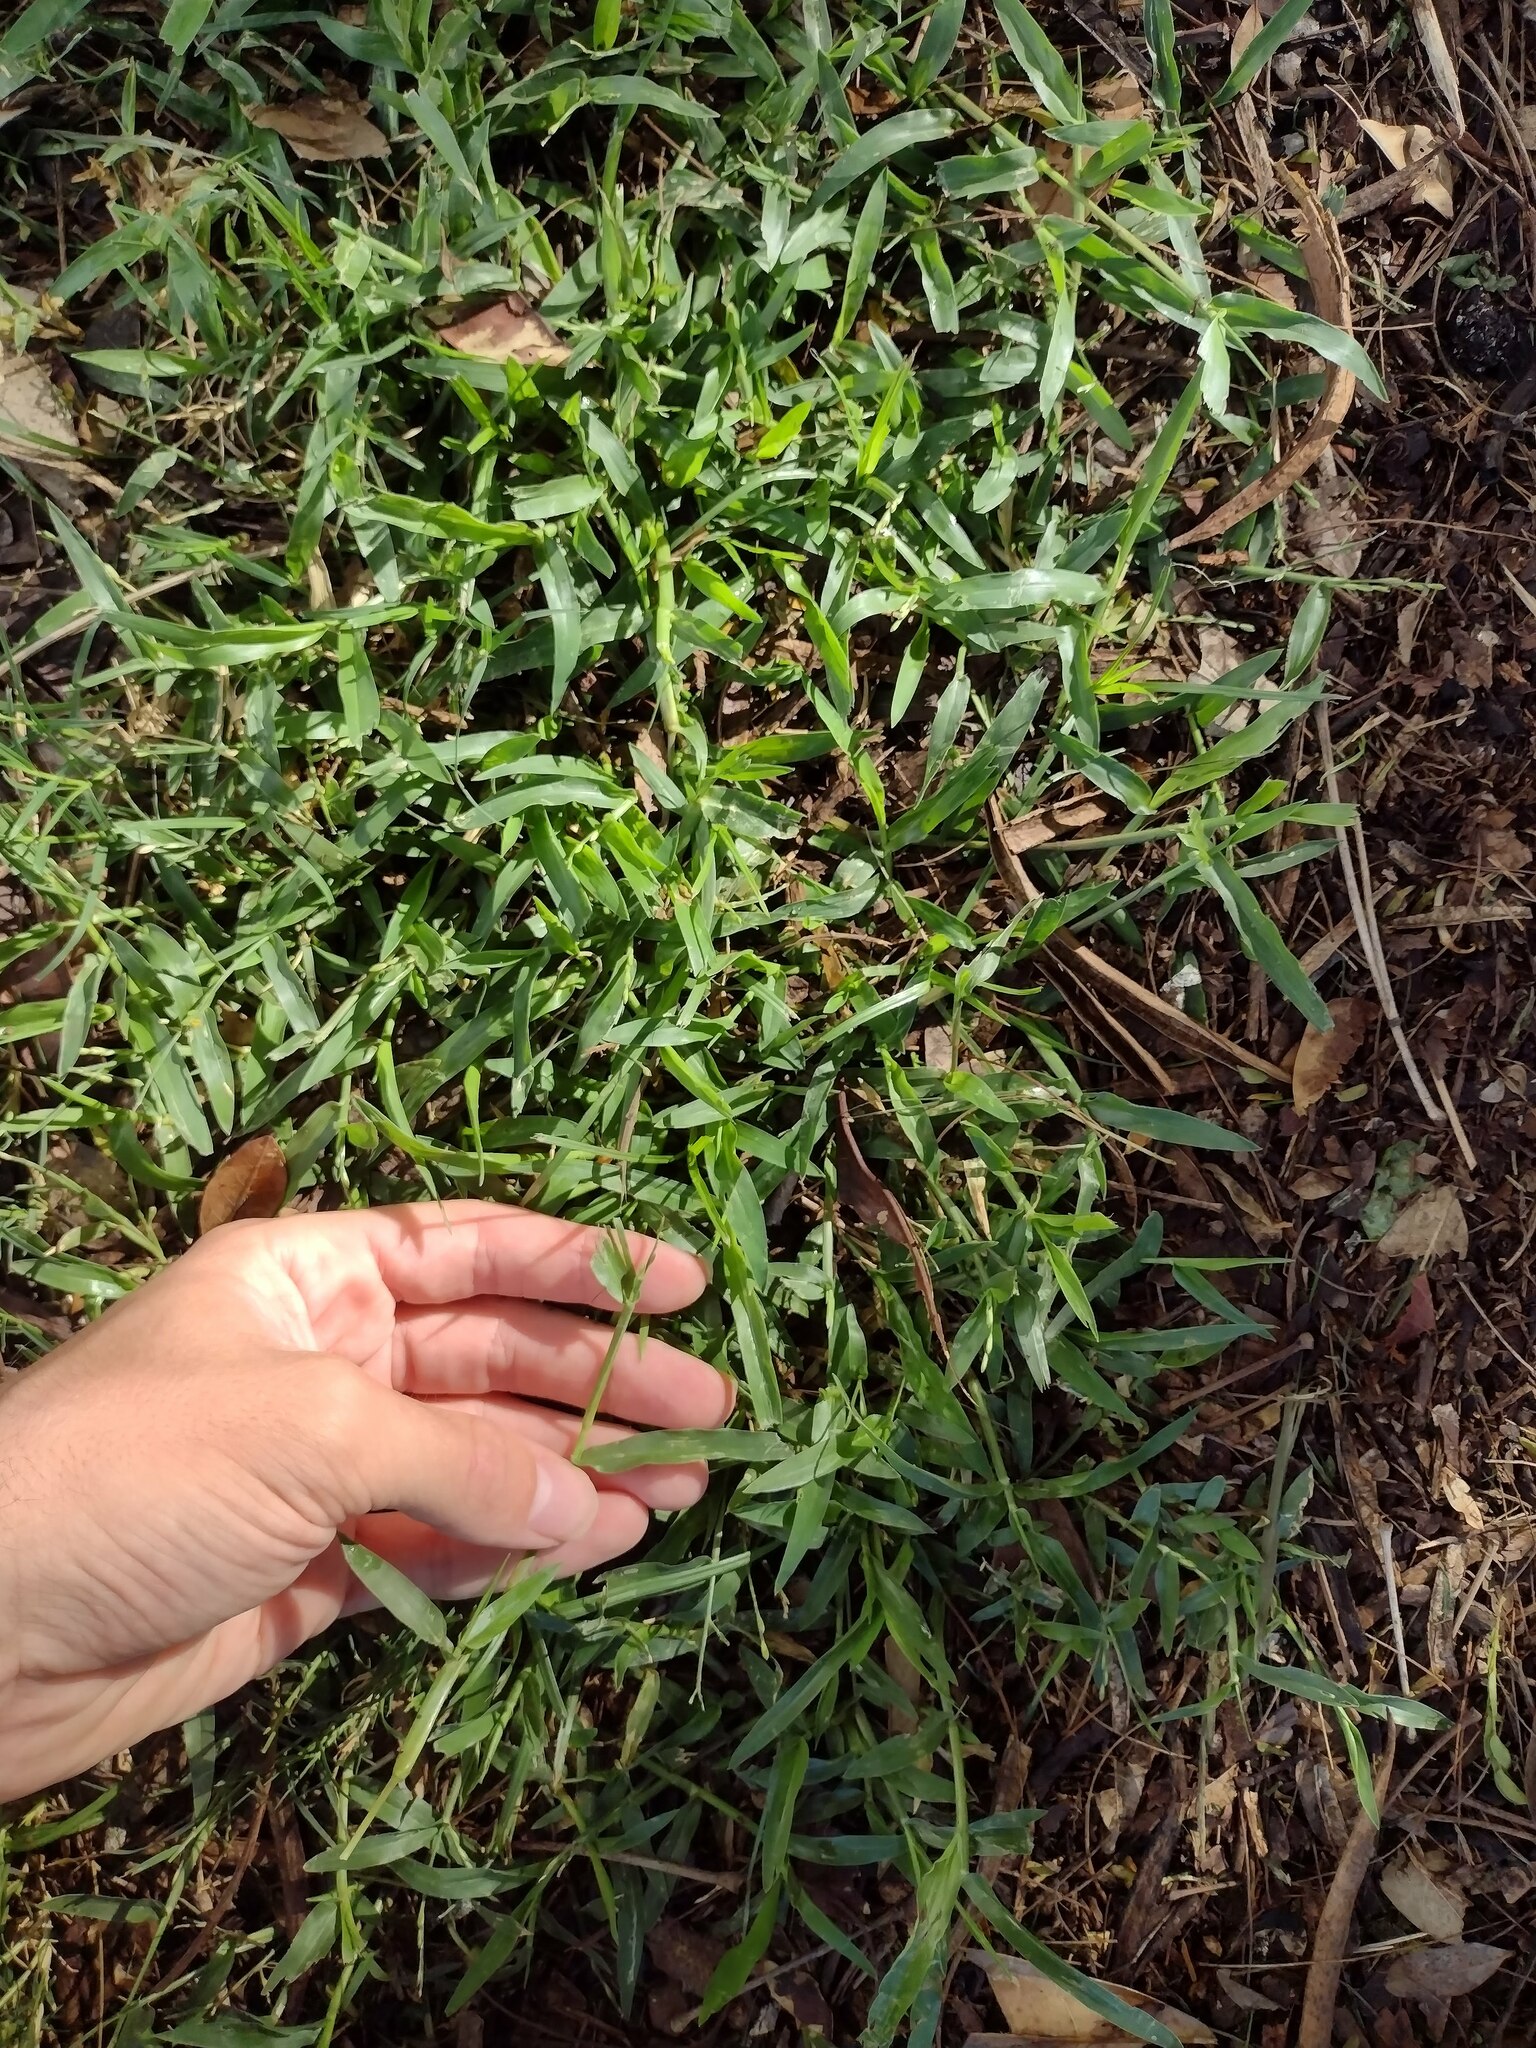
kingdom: Plantae
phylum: Tracheophyta
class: Liliopsida
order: Poales
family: Poaceae
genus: Urochloa
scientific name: Urochloa distachyos
